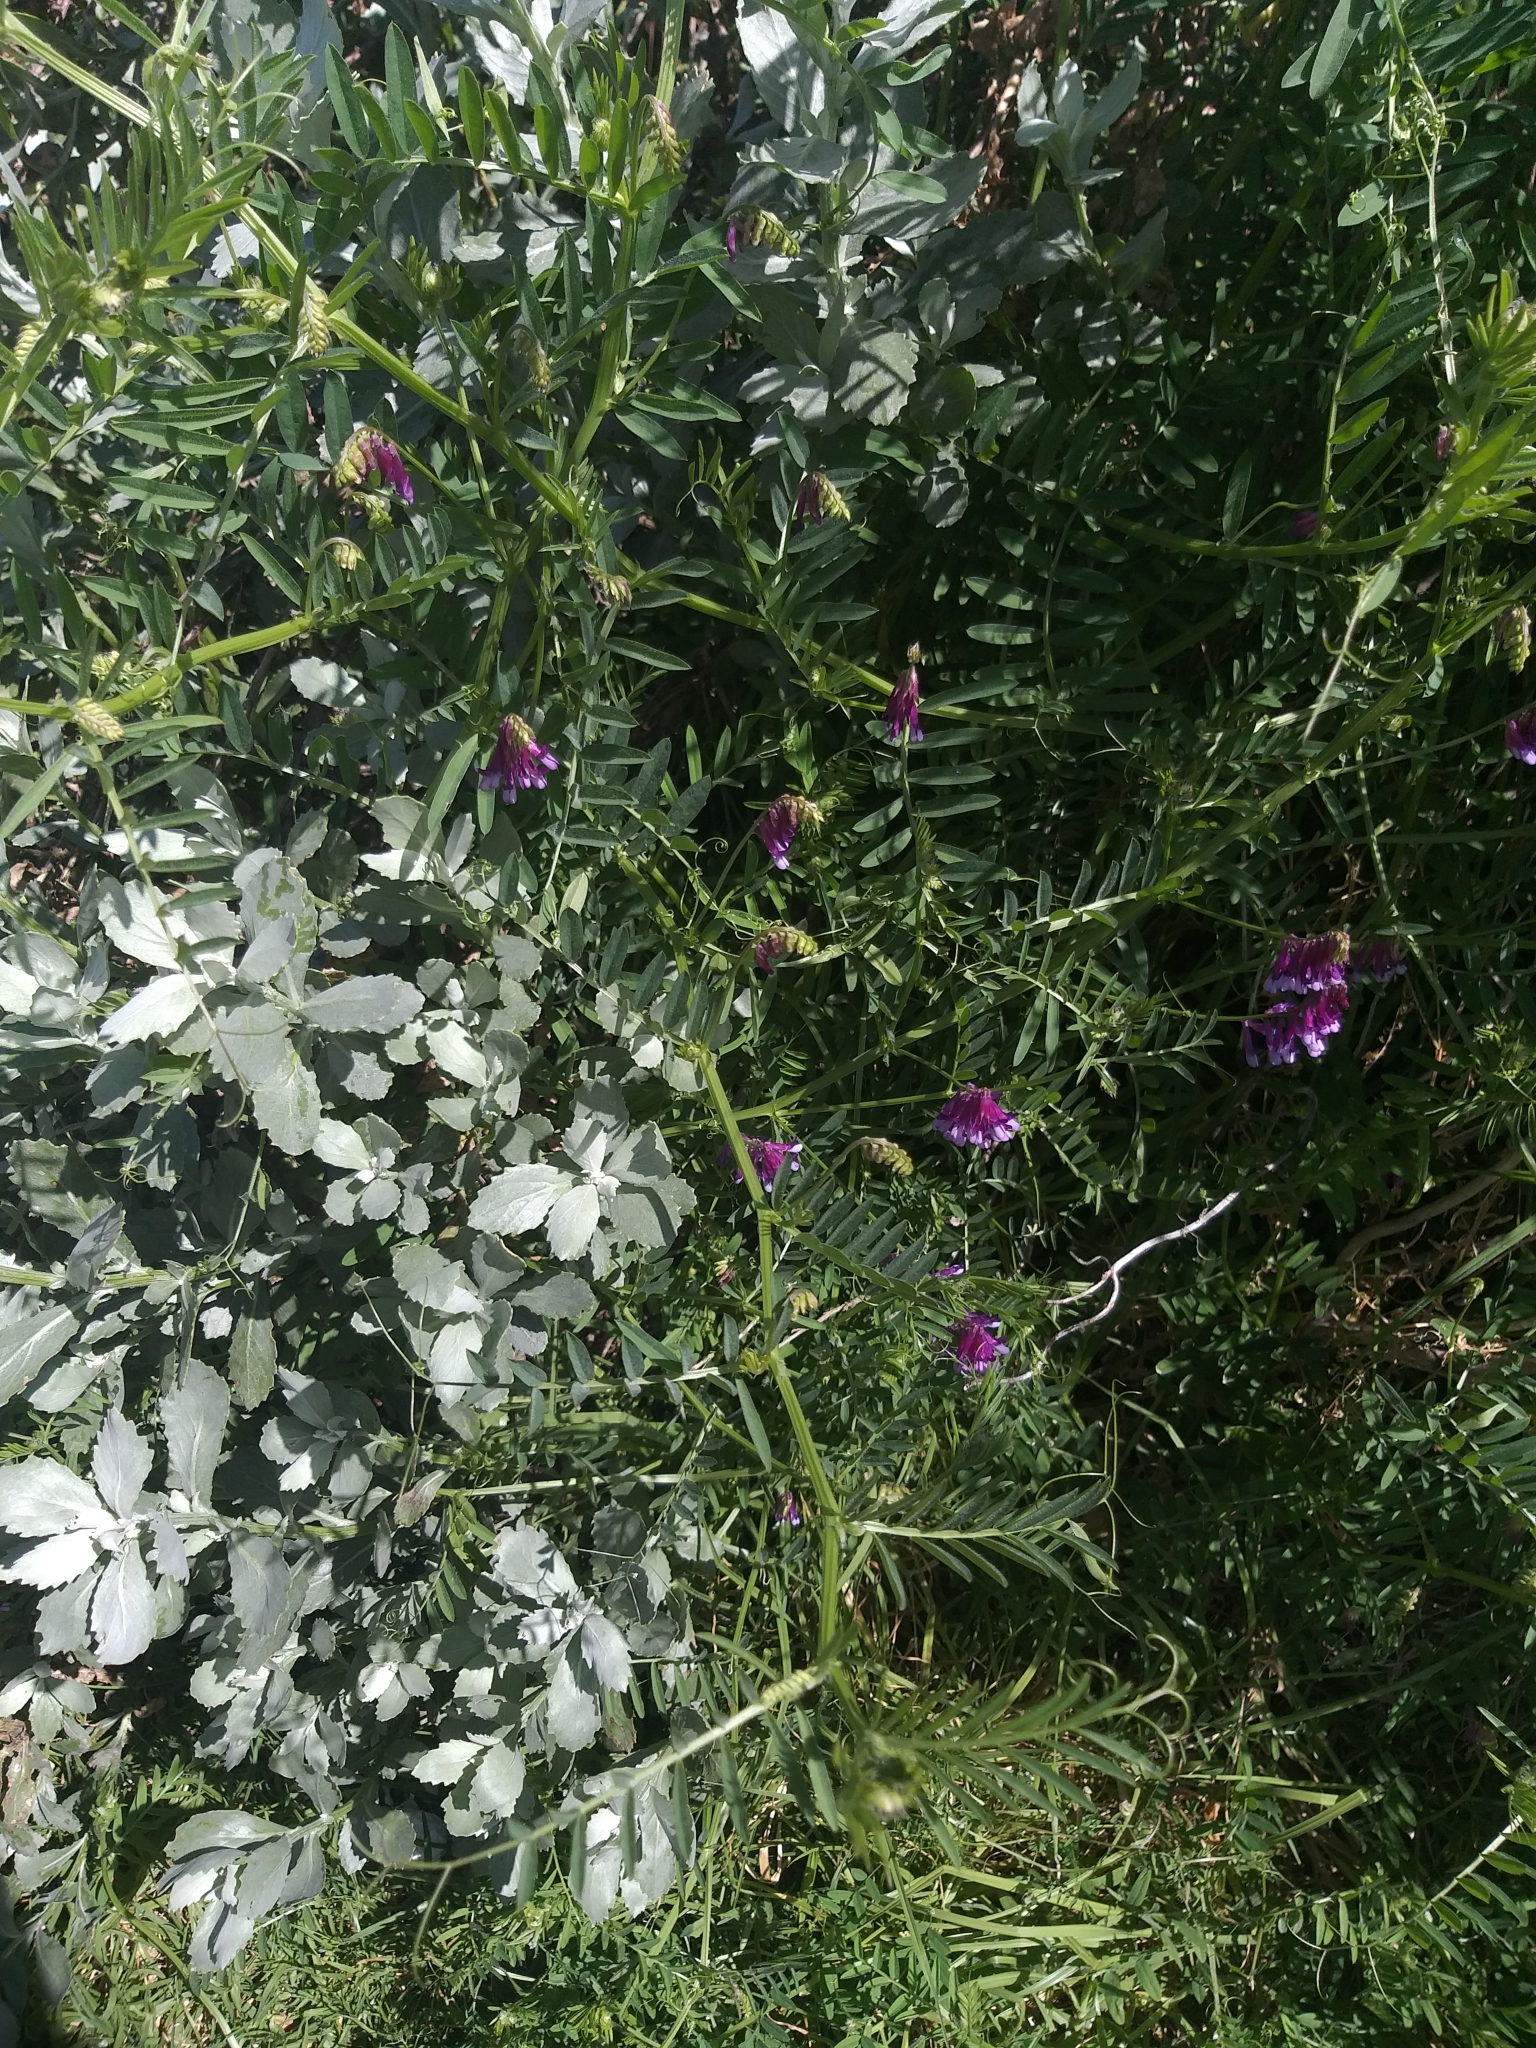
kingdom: Plantae
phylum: Tracheophyta
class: Magnoliopsida
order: Fabales
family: Fabaceae
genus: Vicia
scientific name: Vicia eriocarpa
